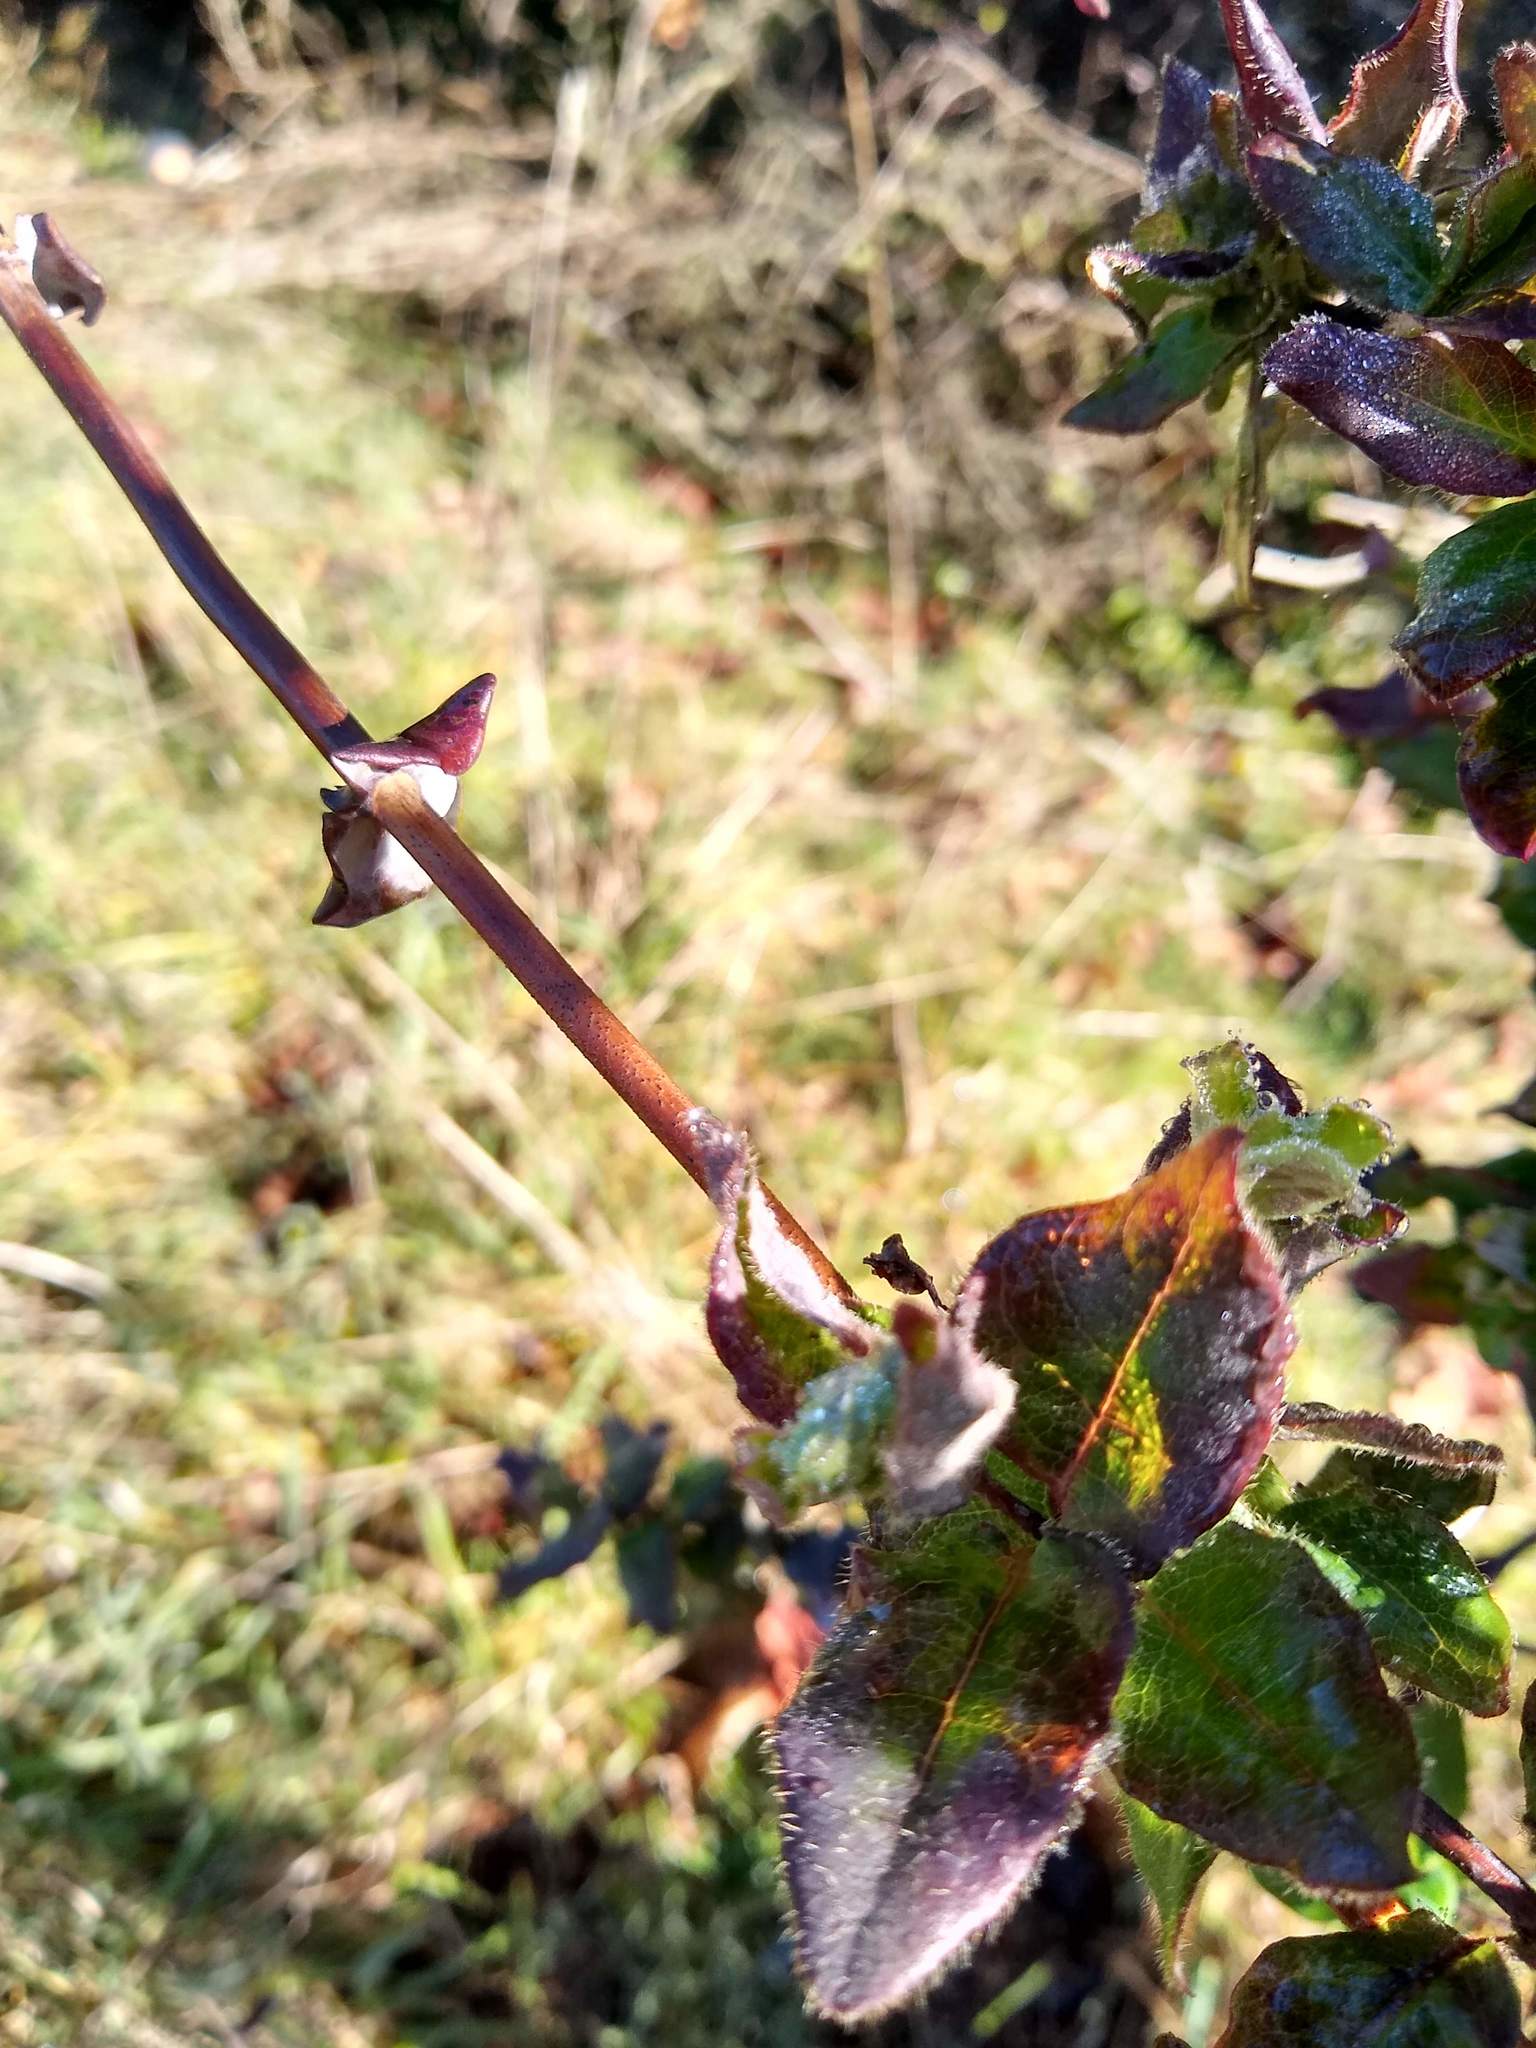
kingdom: Plantae
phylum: Tracheophyta
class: Magnoliopsida
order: Dipsacales
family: Caprifoliaceae
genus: Lonicera
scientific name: Lonicera hispidula
